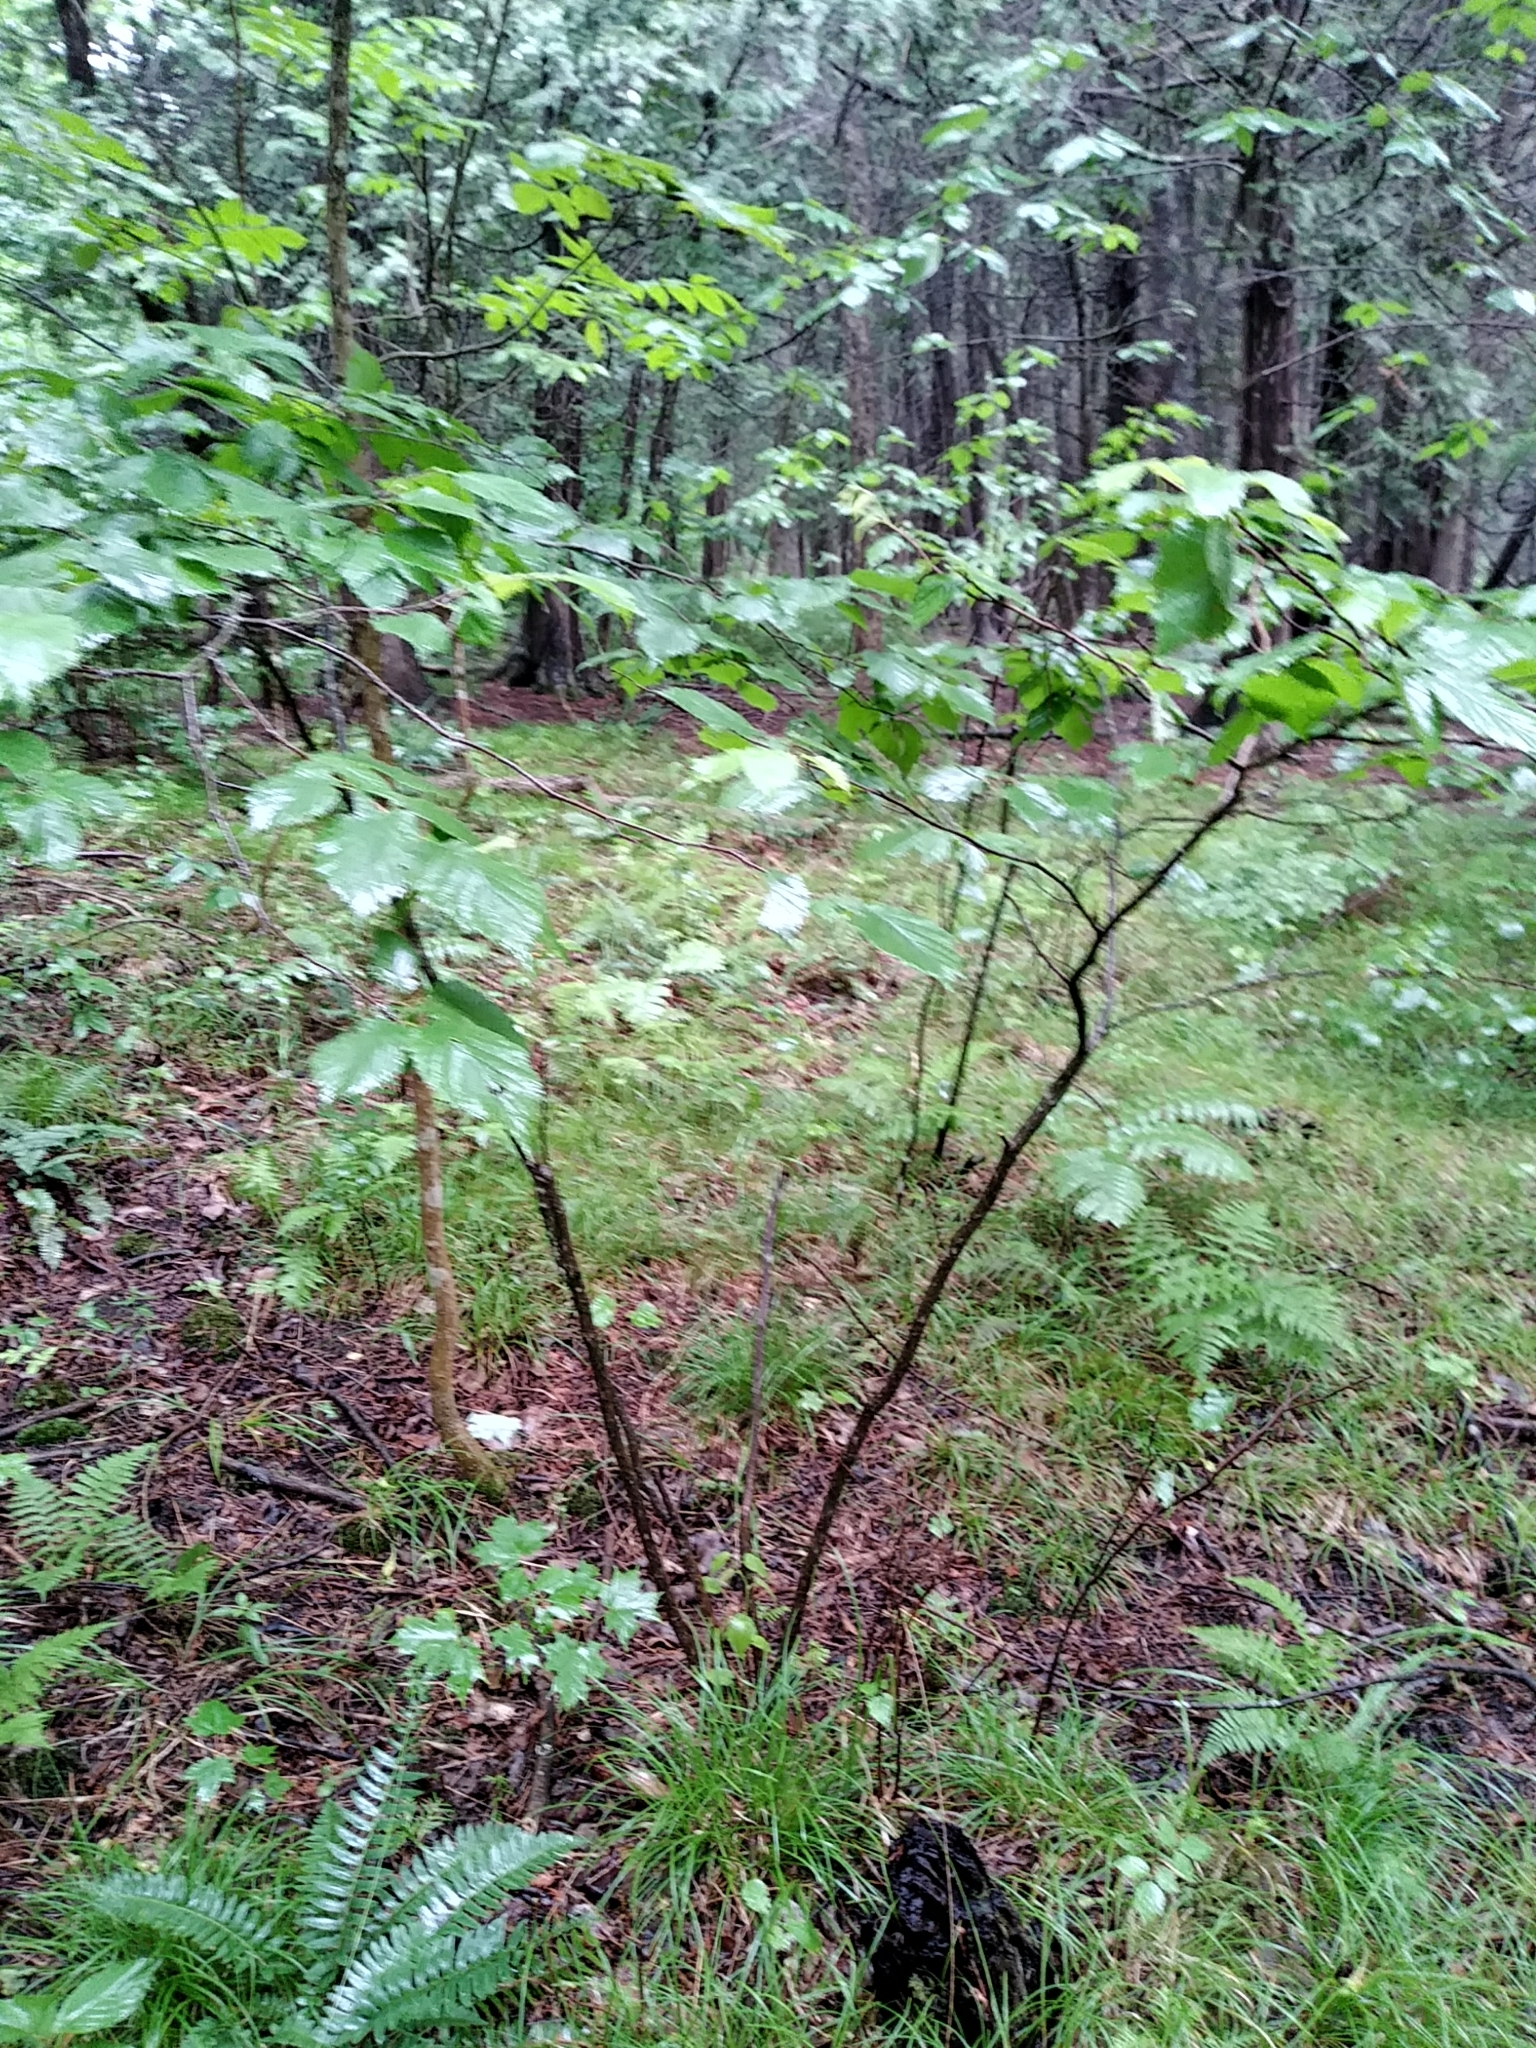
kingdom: Plantae
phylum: Tracheophyta
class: Magnoliopsida
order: Fagales
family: Betulaceae
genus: Corylus
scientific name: Corylus cornuta
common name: Beaked hazel
